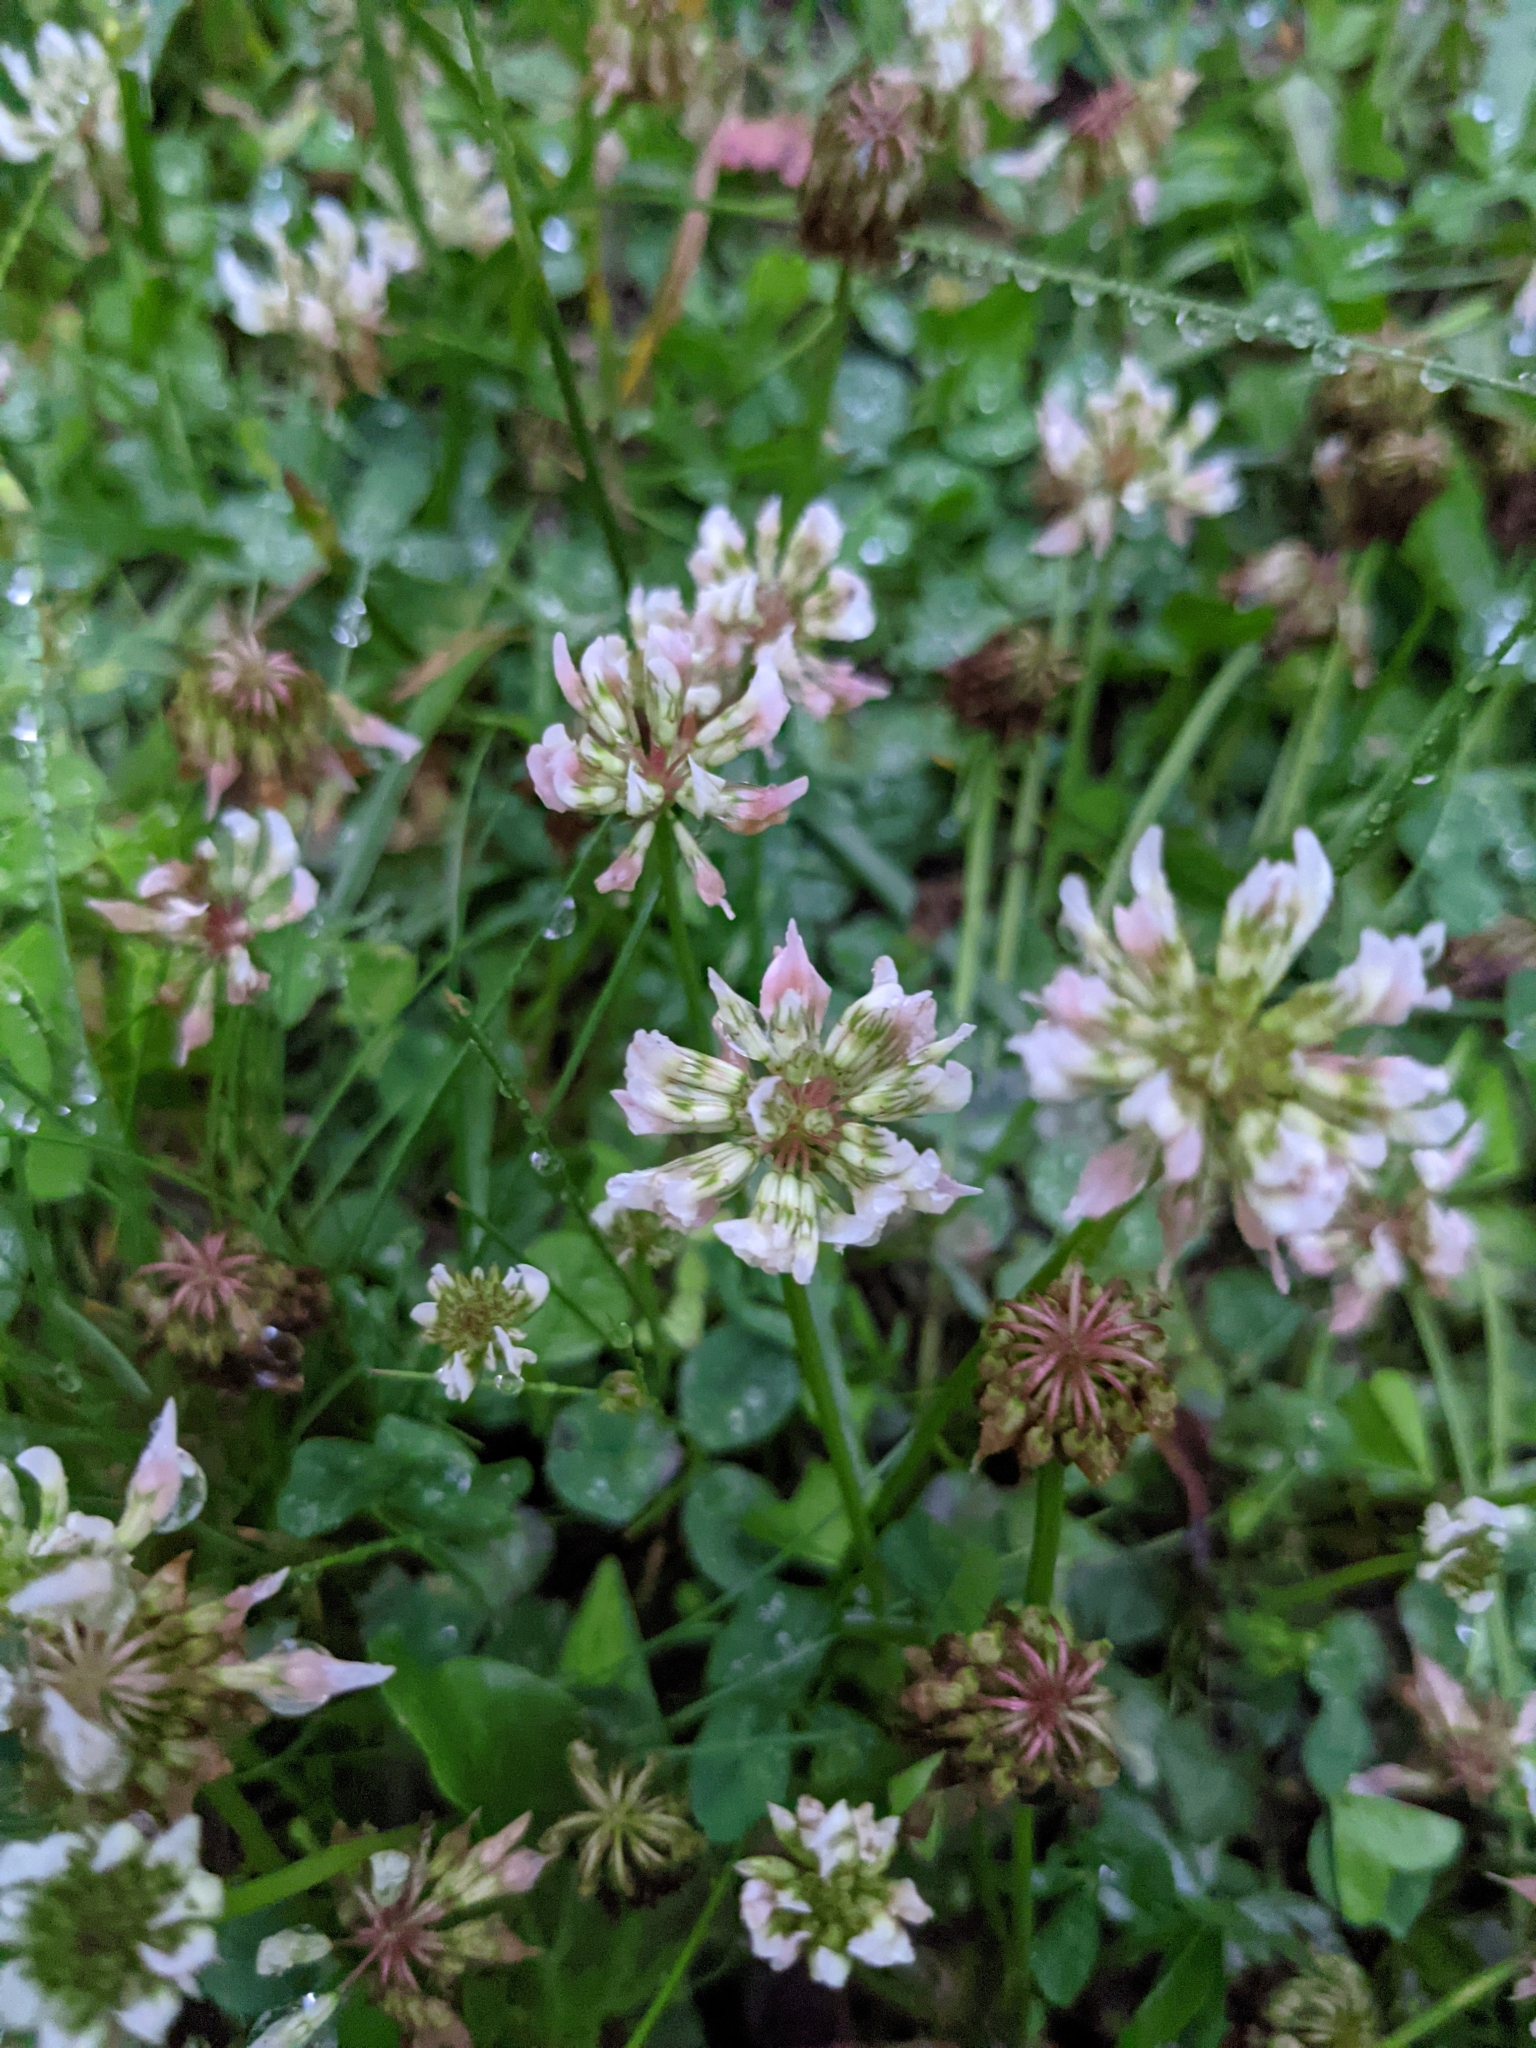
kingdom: Plantae
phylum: Tracheophyta
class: Magnoliopsida
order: Fabales
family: Fabaceae
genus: Trifolium
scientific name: Trifolium repens
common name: White clover
